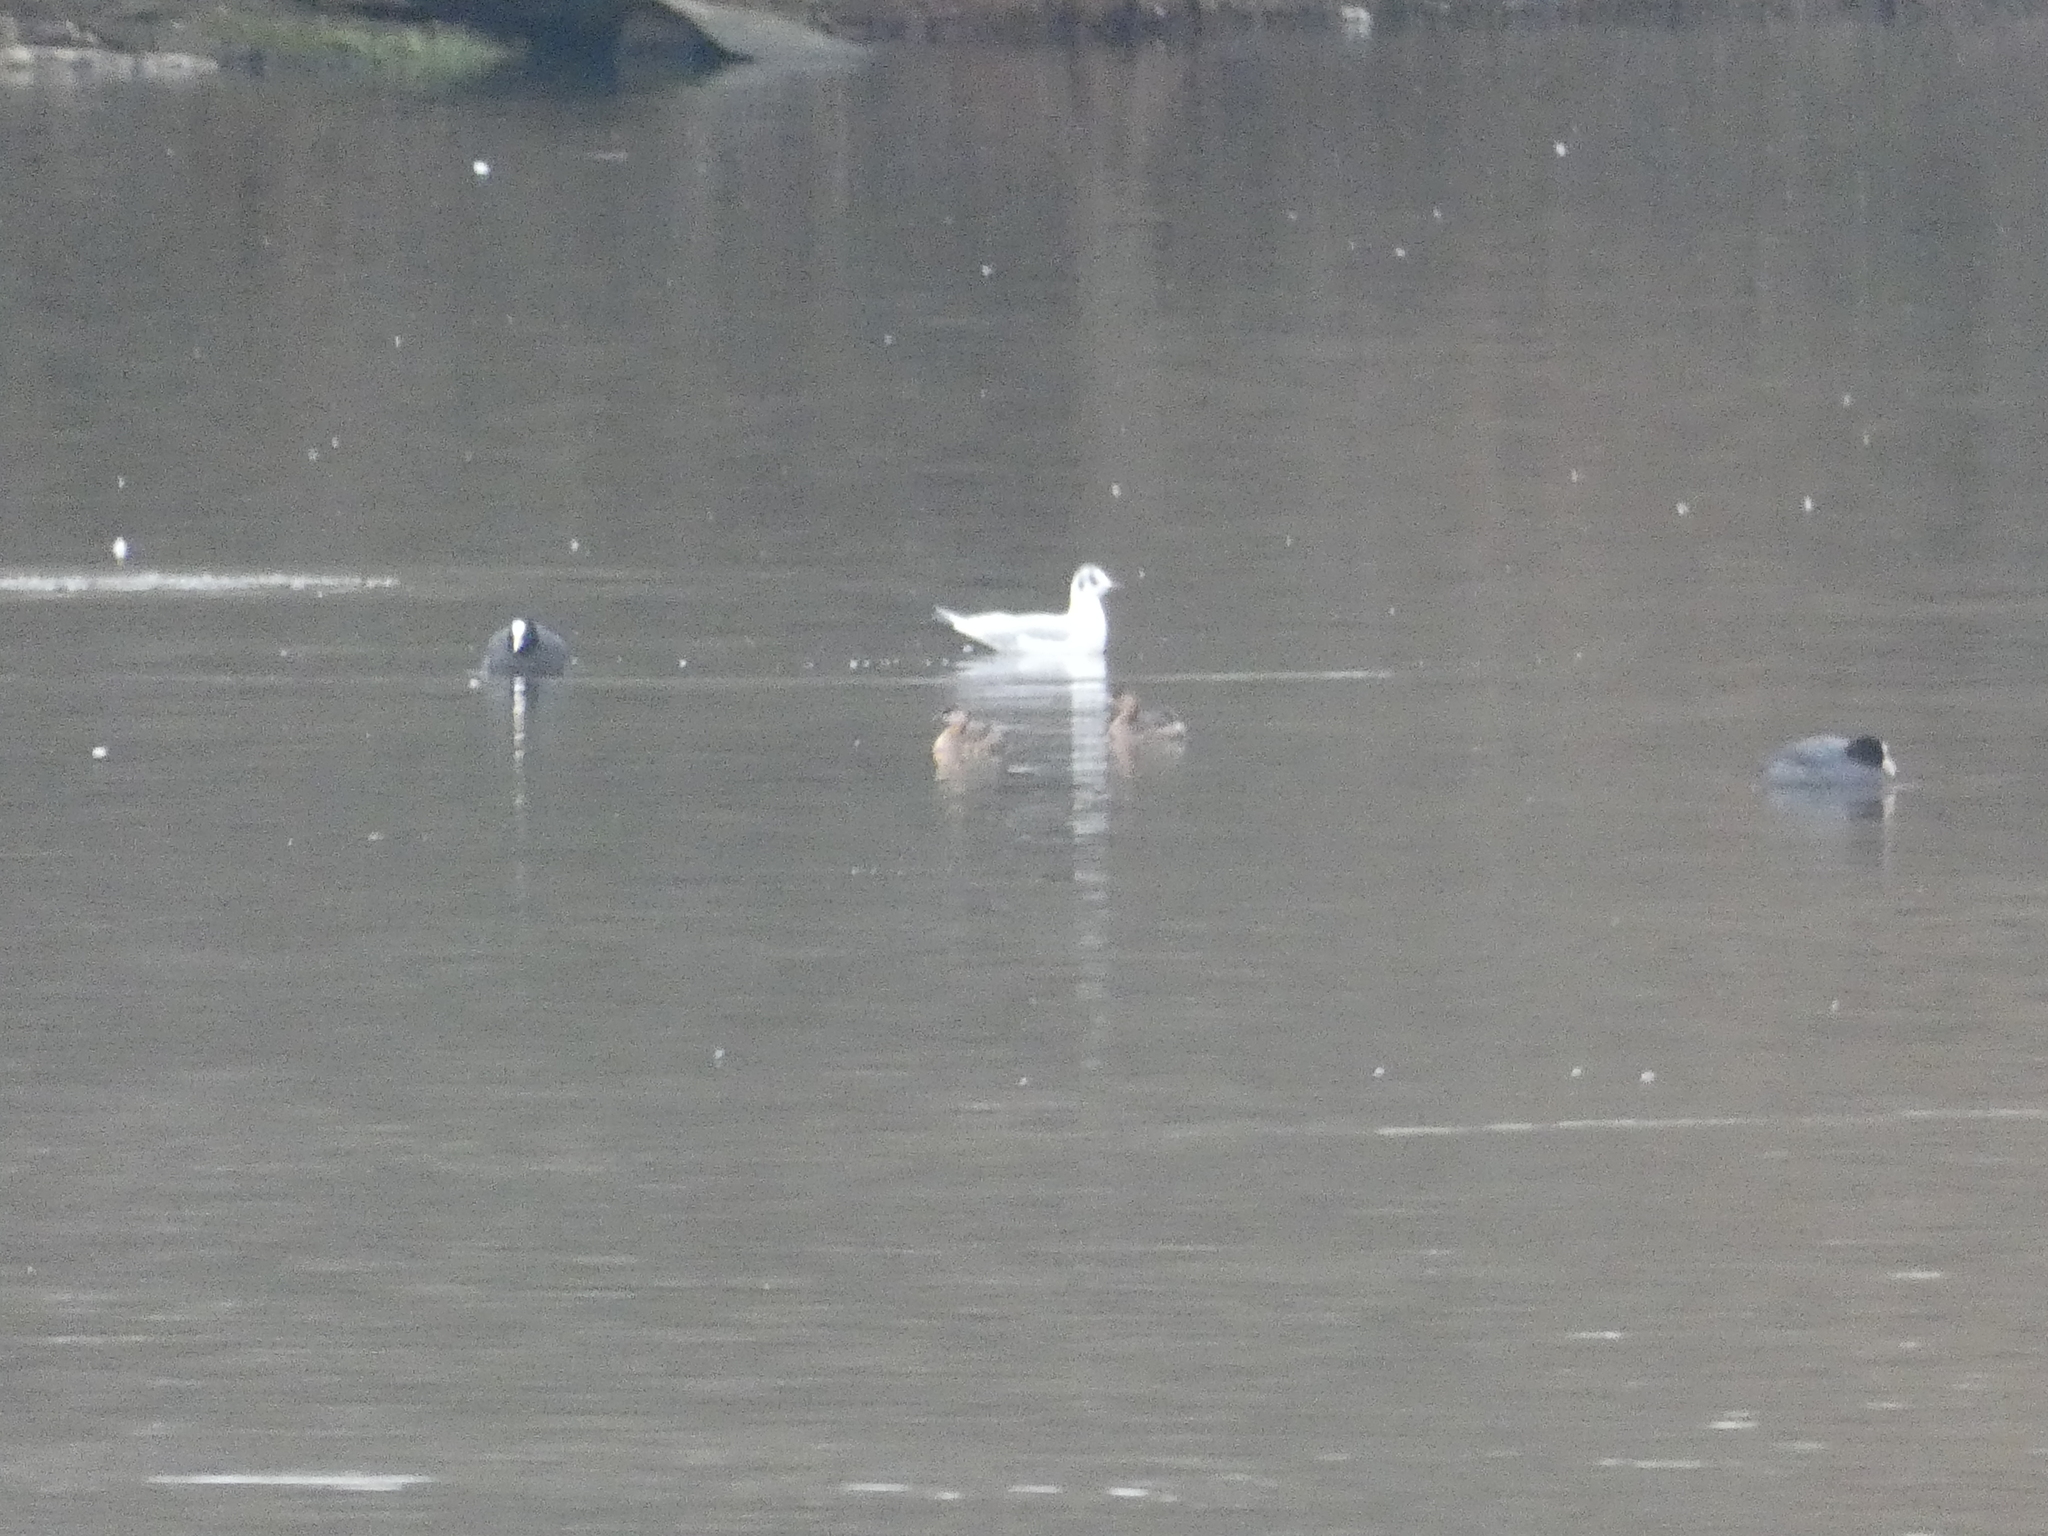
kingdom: Animalia
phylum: Chordata
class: Aves
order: Podicipediformes
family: Podicipedidae
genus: Tachybaptus
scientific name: Tachybaptus ruficollis
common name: Little grebe
